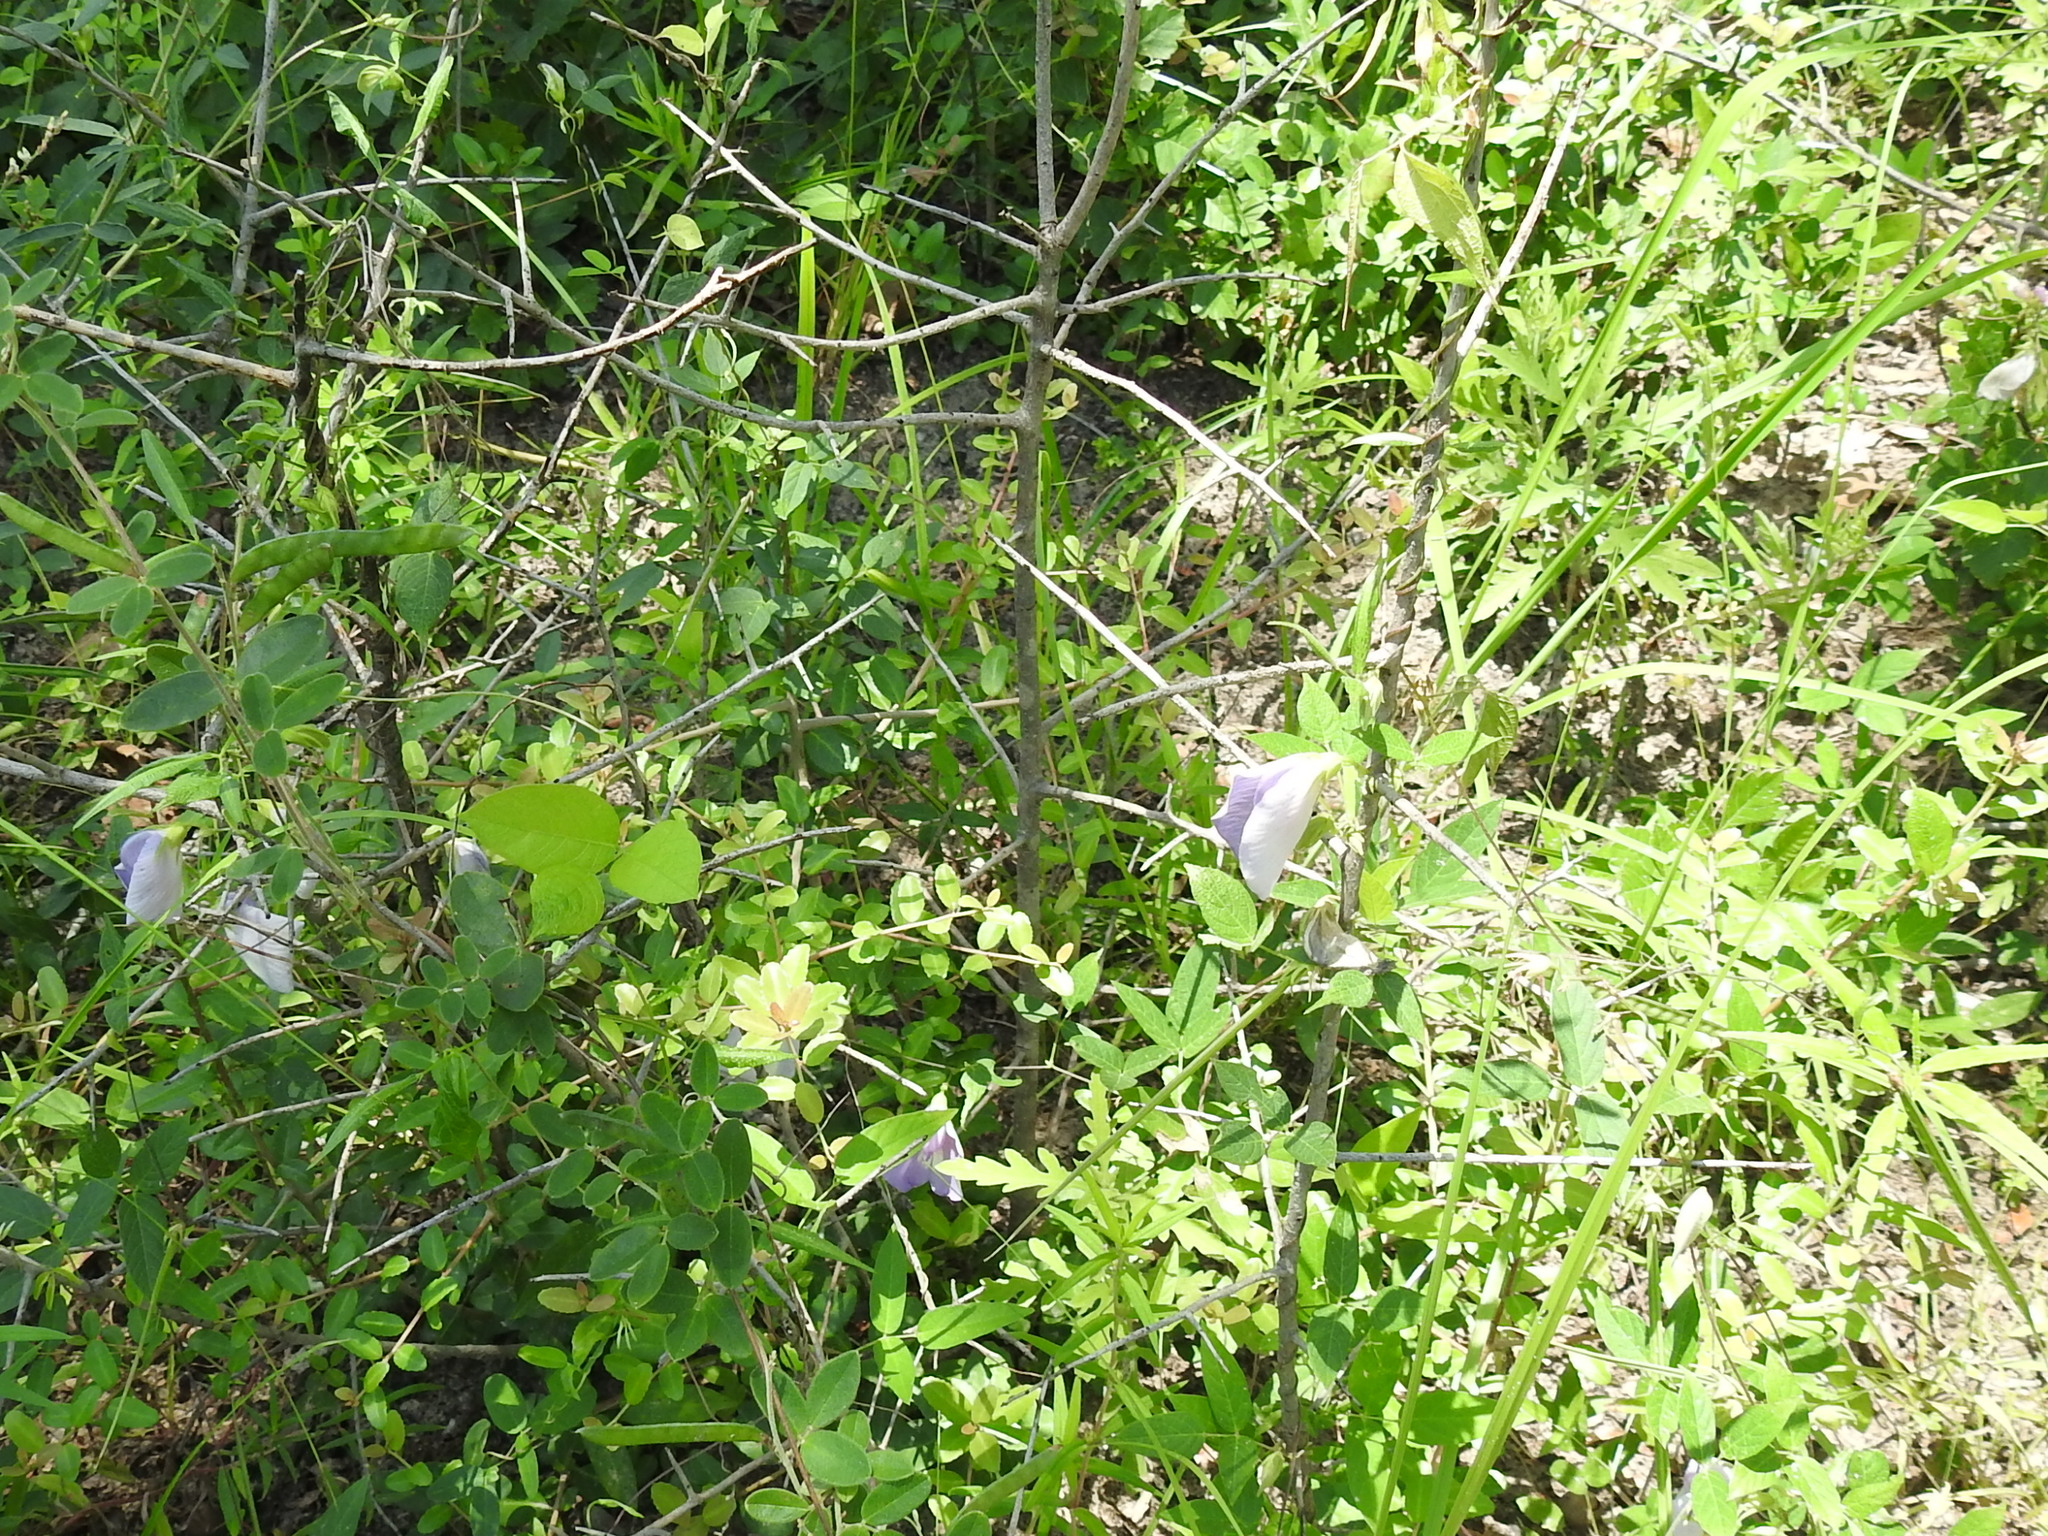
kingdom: Plantae
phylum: Tracheophyta
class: Magnoliopsida
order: Fabales
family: Fabaceae
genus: Centrosema
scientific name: Centrosema virginianum
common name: Butterfly-pea
